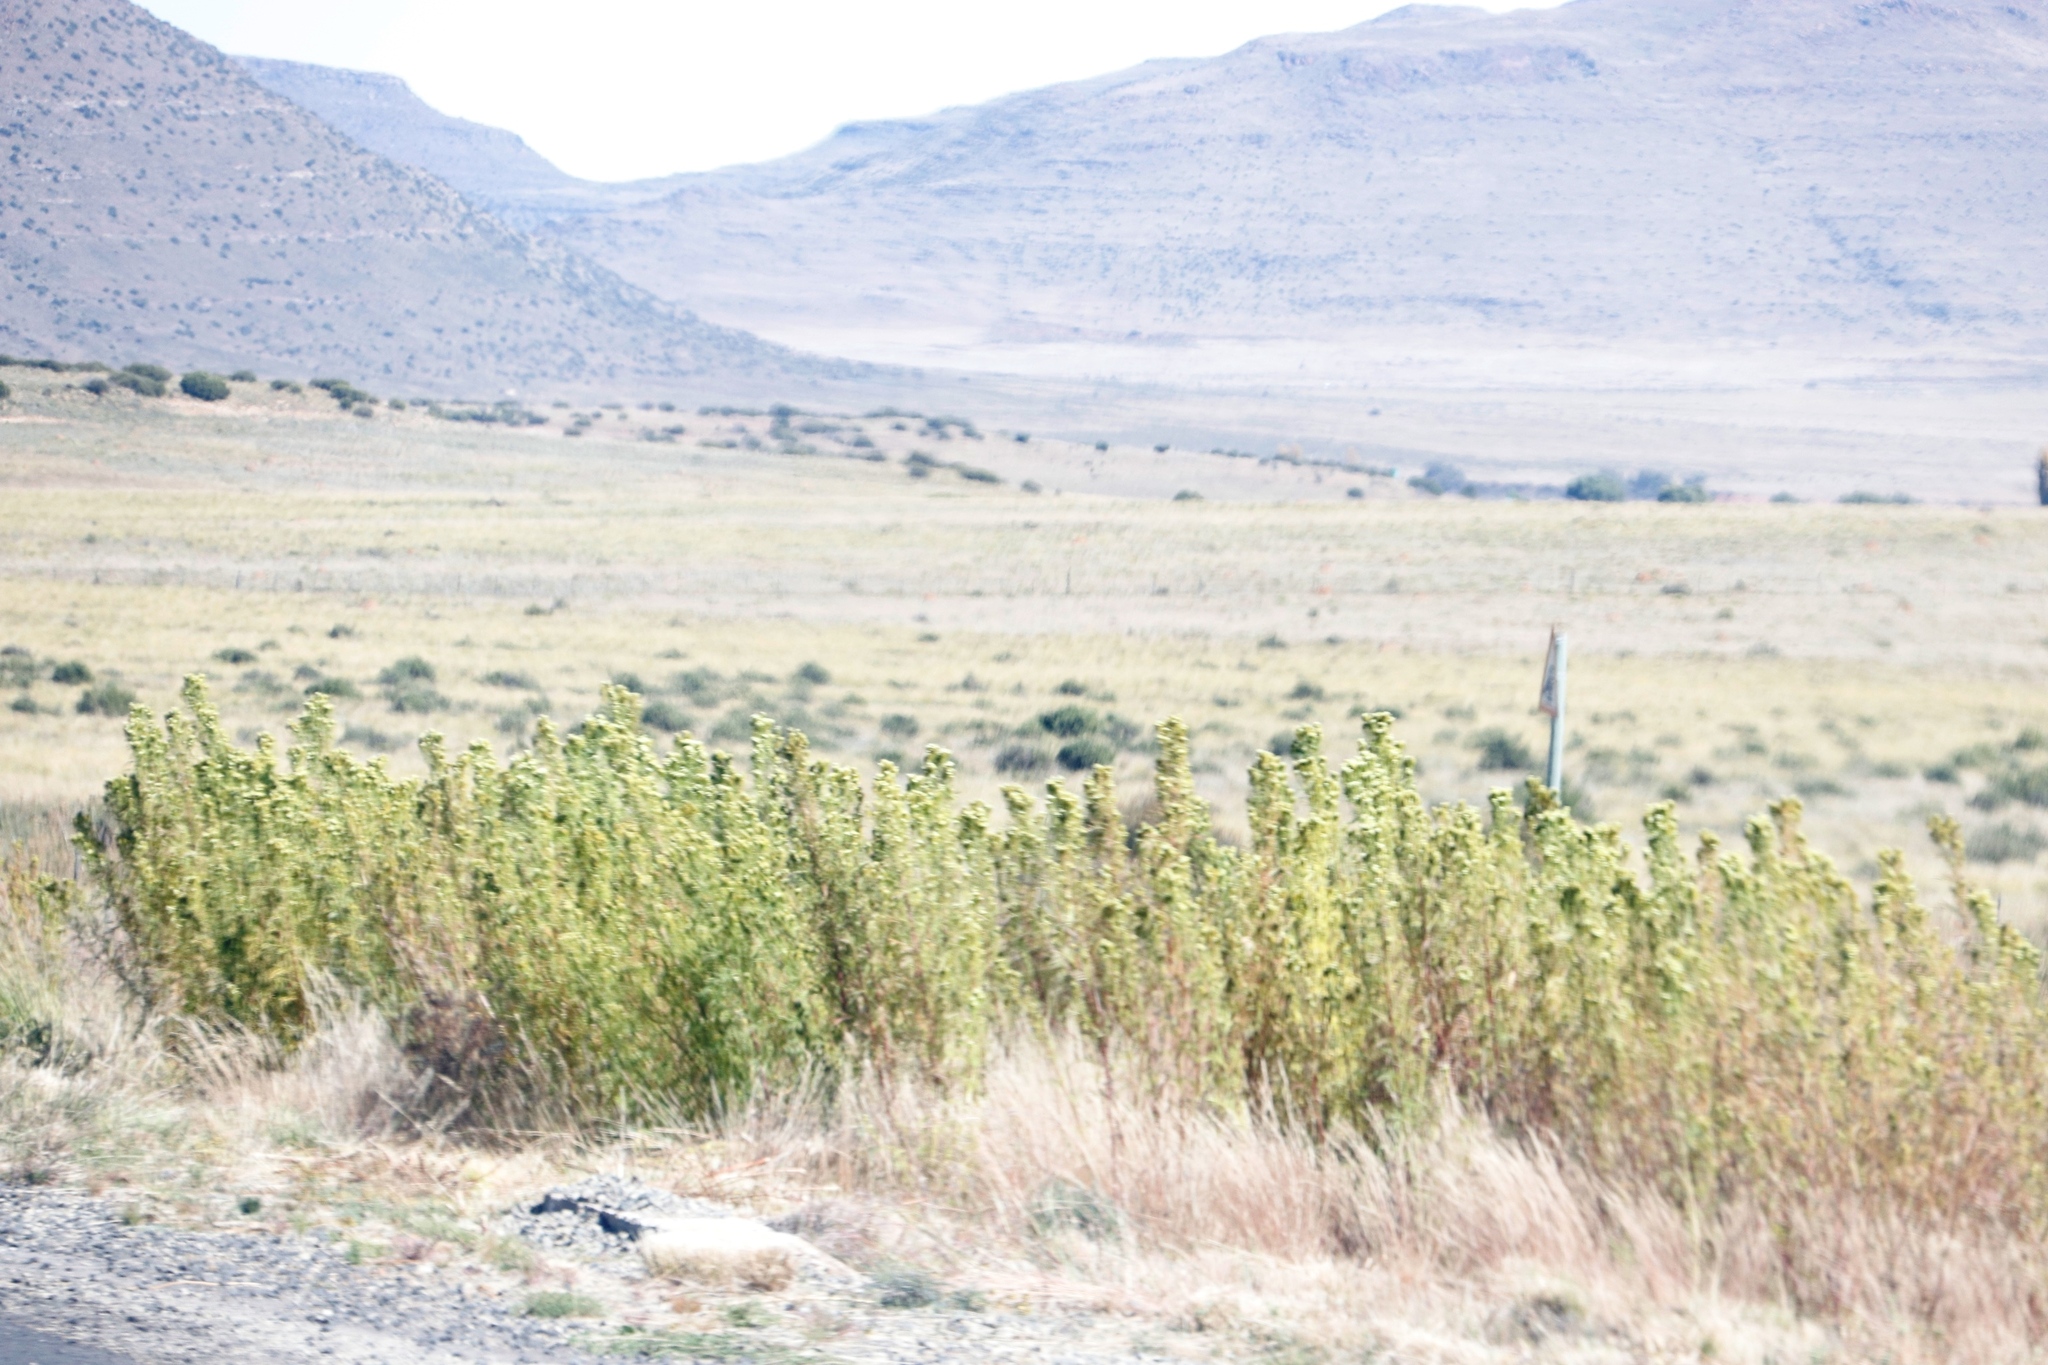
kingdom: Plantae
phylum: Tracheophyta
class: Magnoliopsida
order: Asterales
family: Asteraceae
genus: Tagetes
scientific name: Tagetes minuta
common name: Muster john henry
